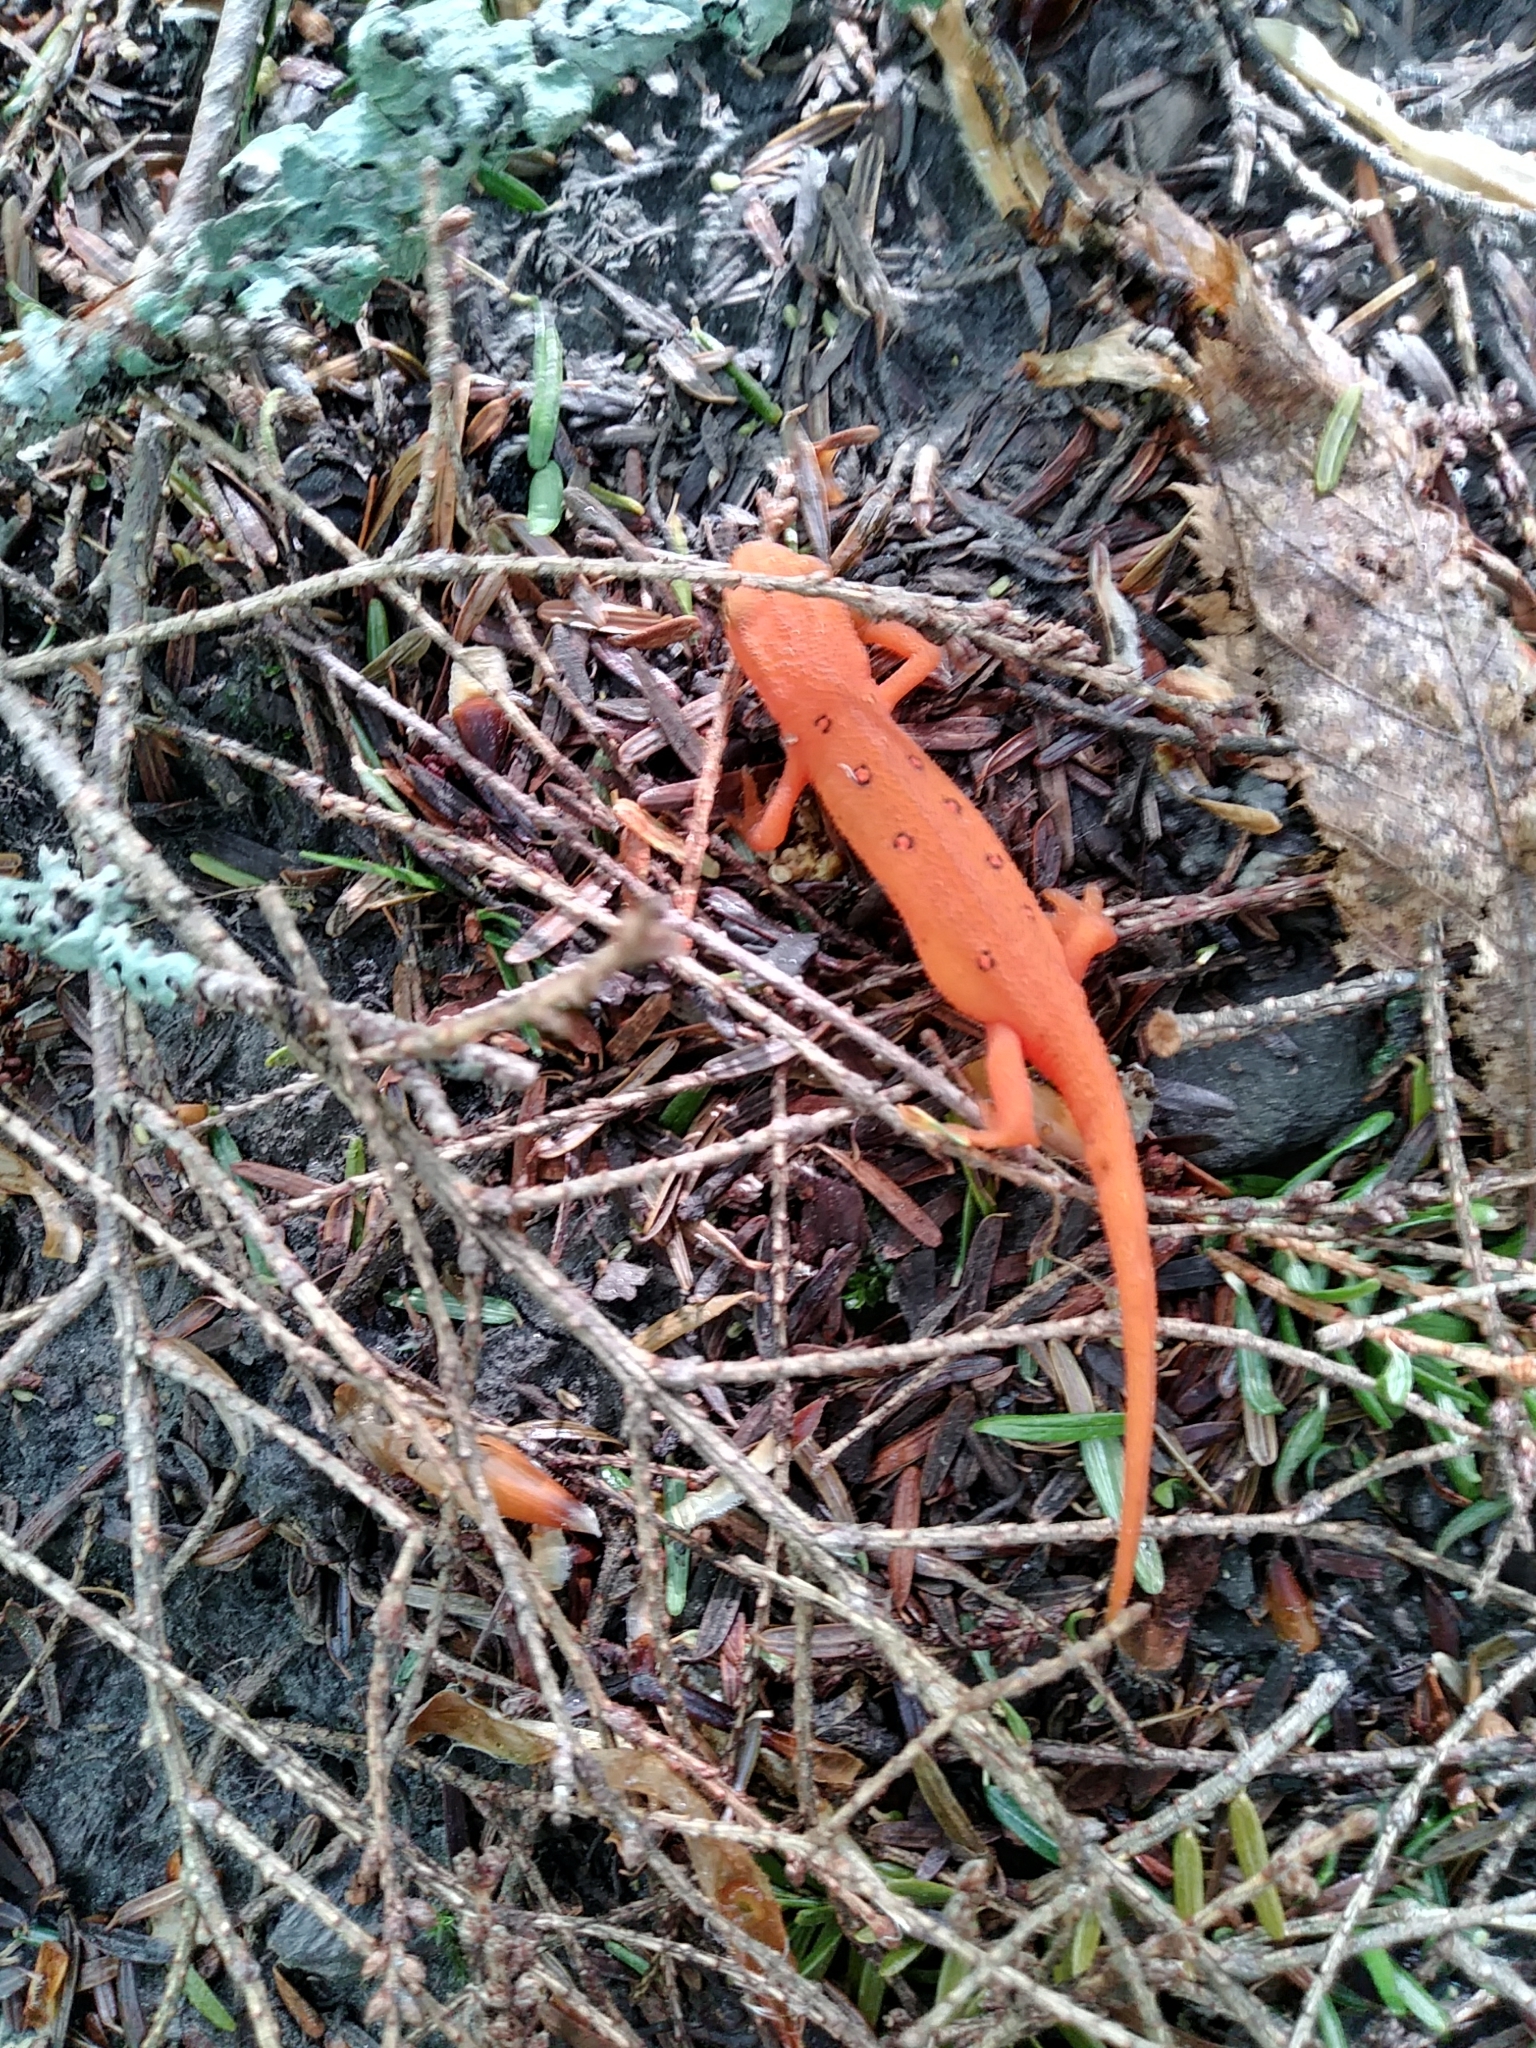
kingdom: Animalia
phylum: Chordata
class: Amphibia
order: Caudata
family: Salamandridae
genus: Notophthalmus
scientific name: Notophthalmus viridescens
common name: Eastern newt
